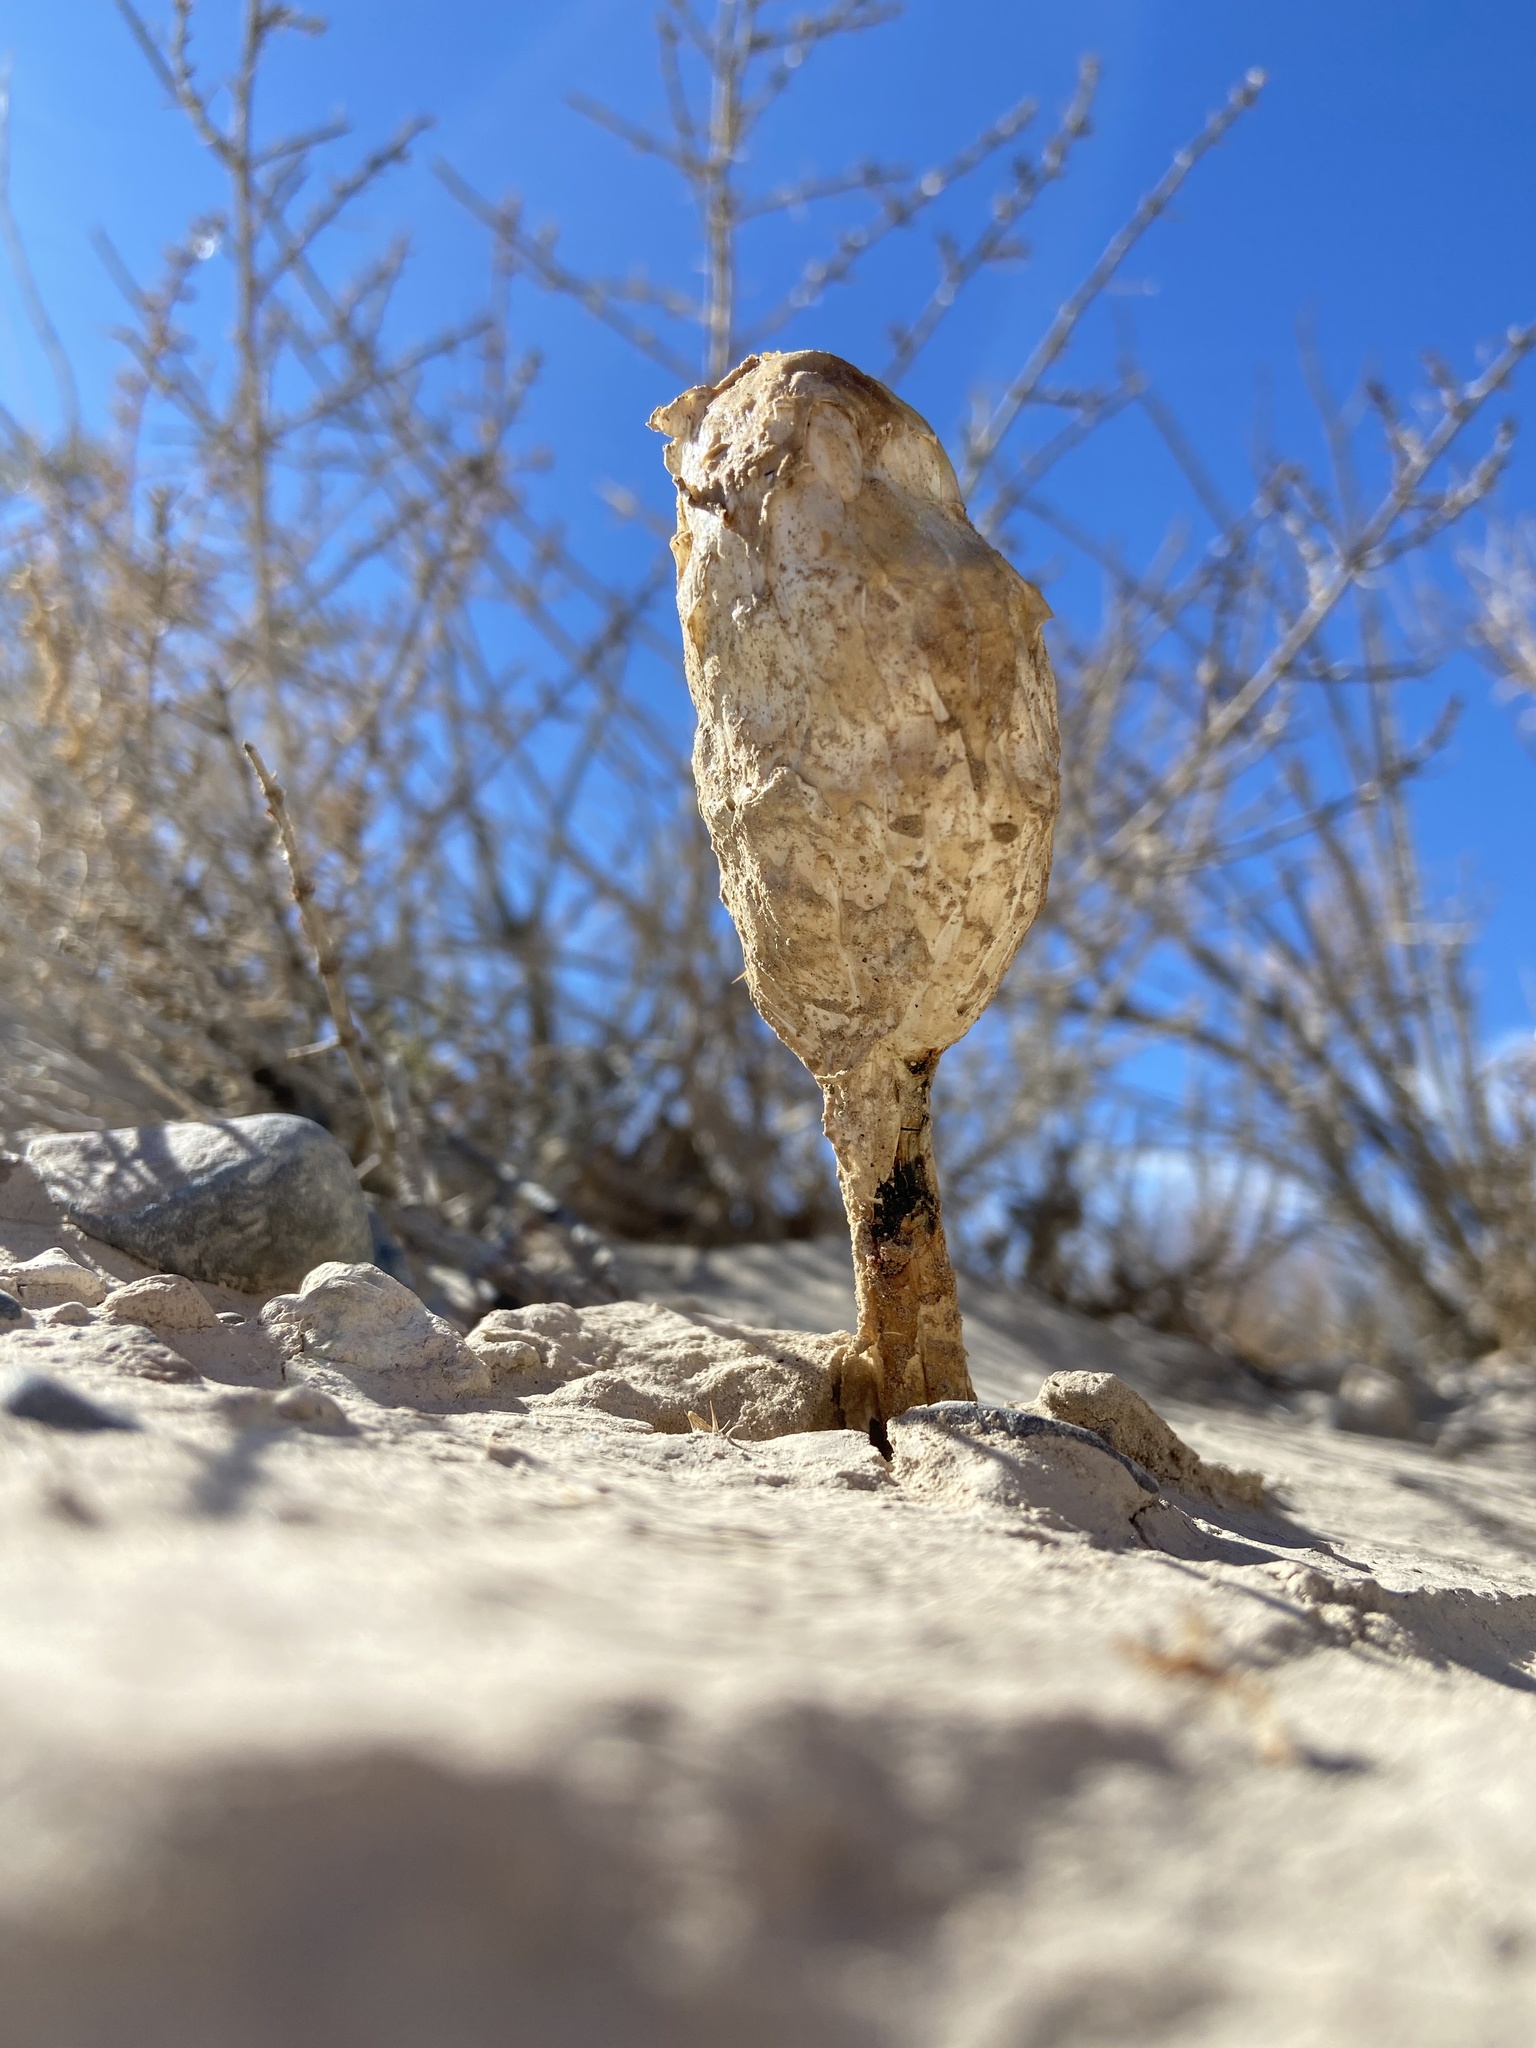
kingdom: Fungi
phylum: Basidiomycota
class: Agaricomycetes
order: Agaricales
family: Agaricaceae
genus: Podaxis
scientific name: Podaxis pistillaris
